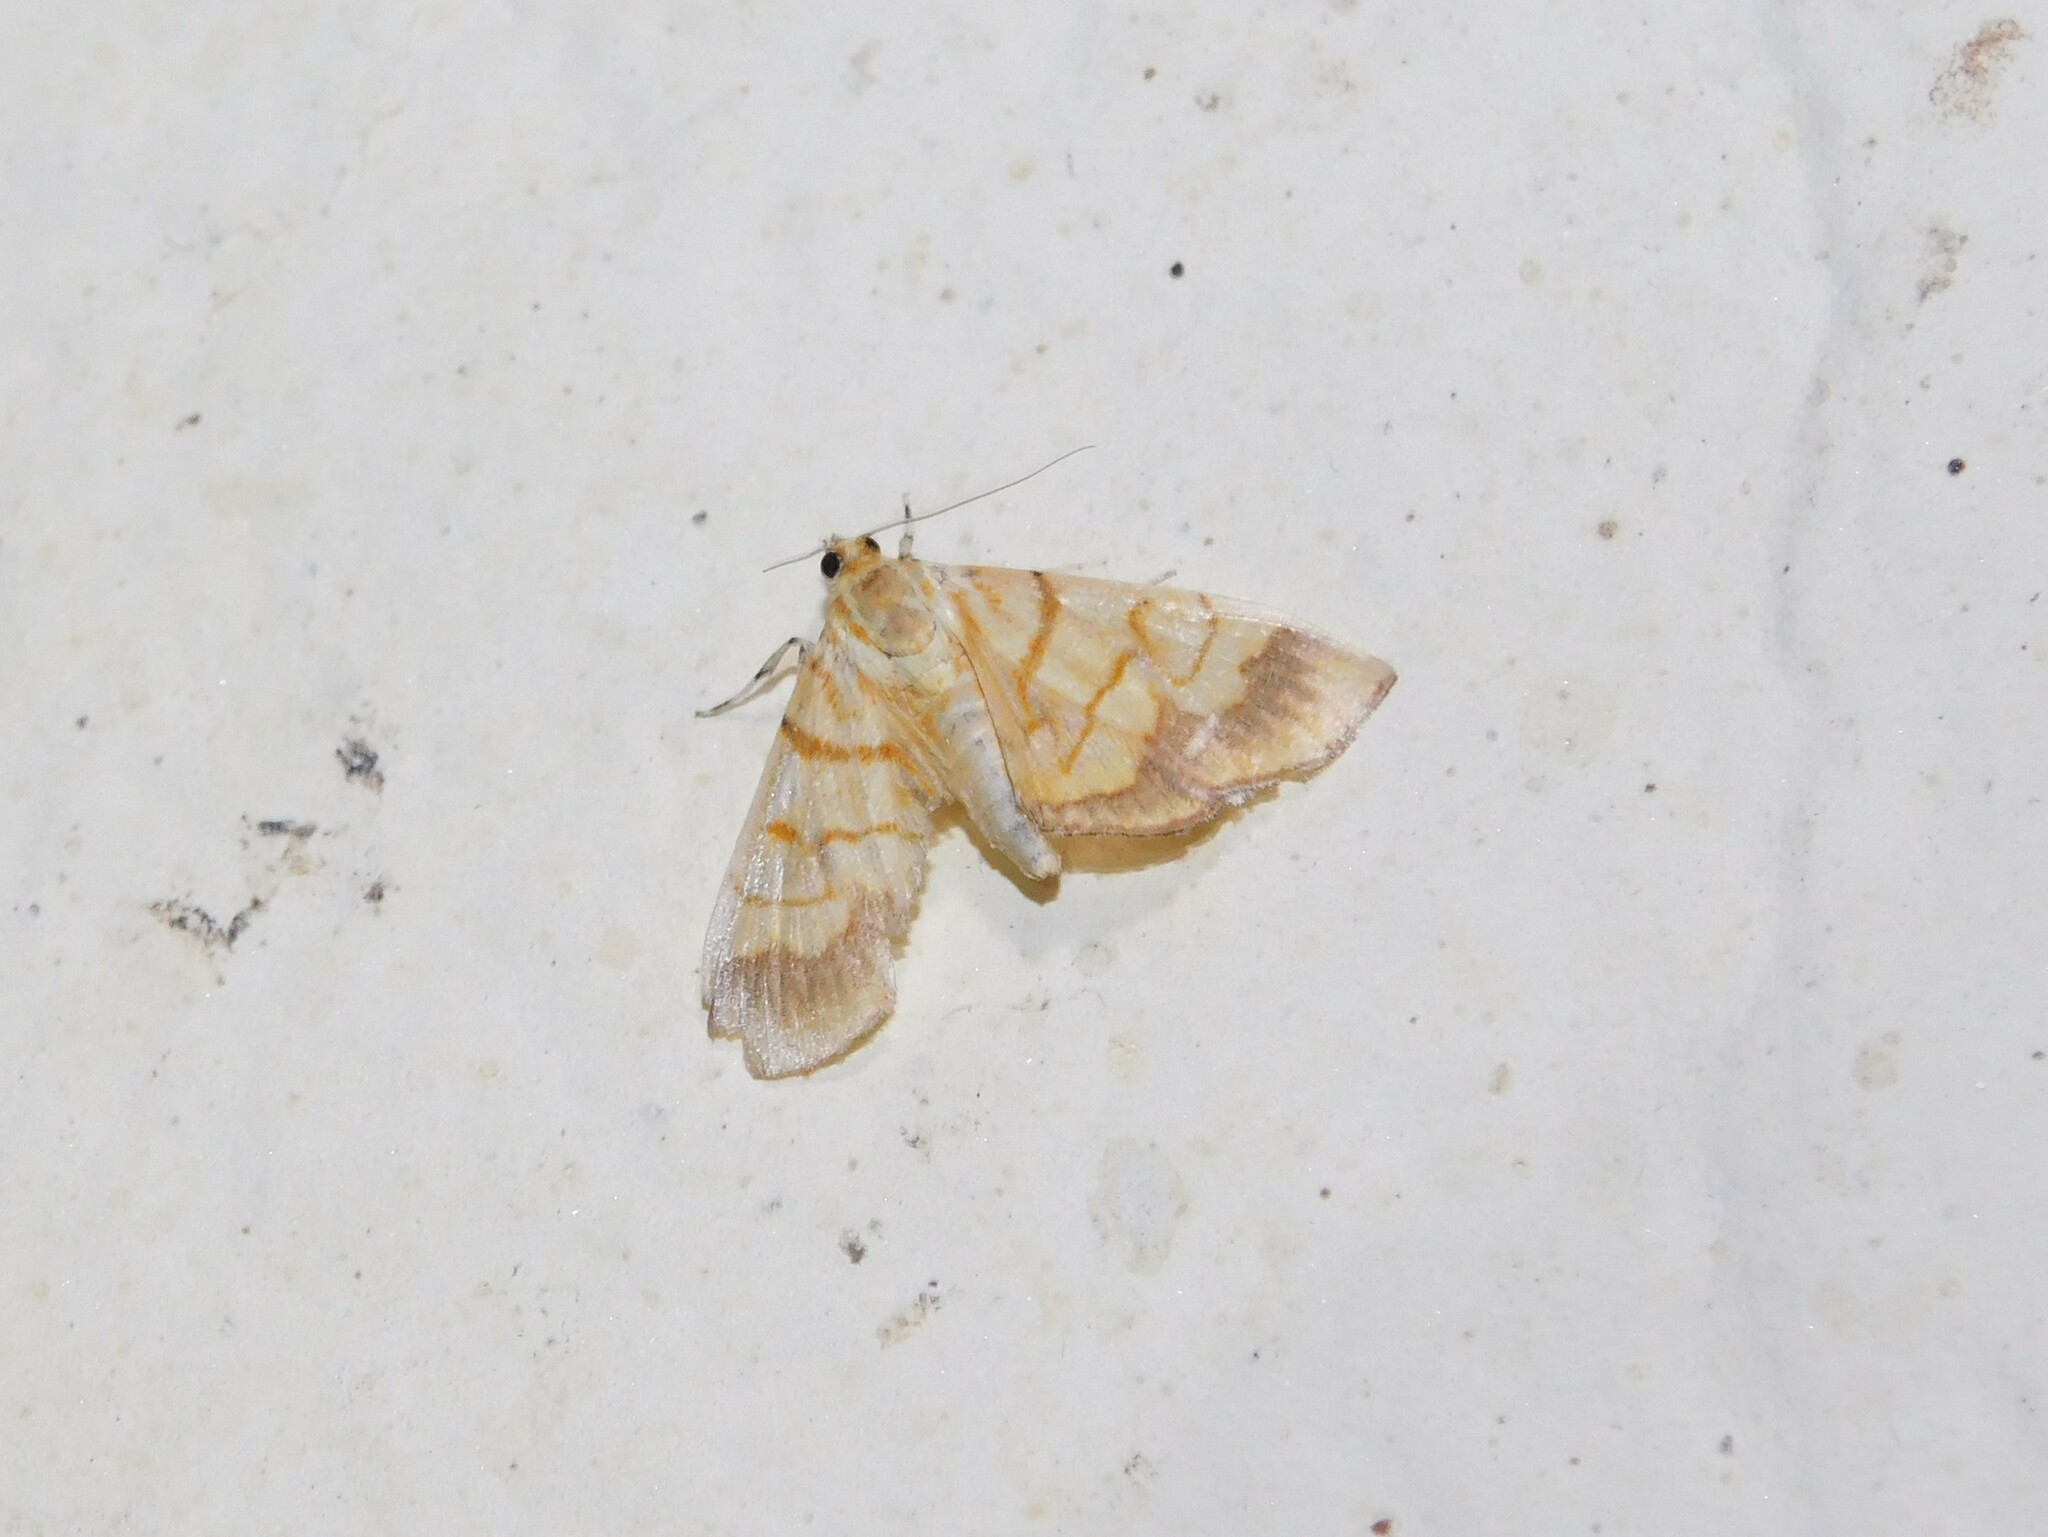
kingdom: Animalia
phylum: Arthropoda
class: Insecta
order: Lepidoptera
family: Crambidae
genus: Cryptosara
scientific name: Cryptosara caritalis
